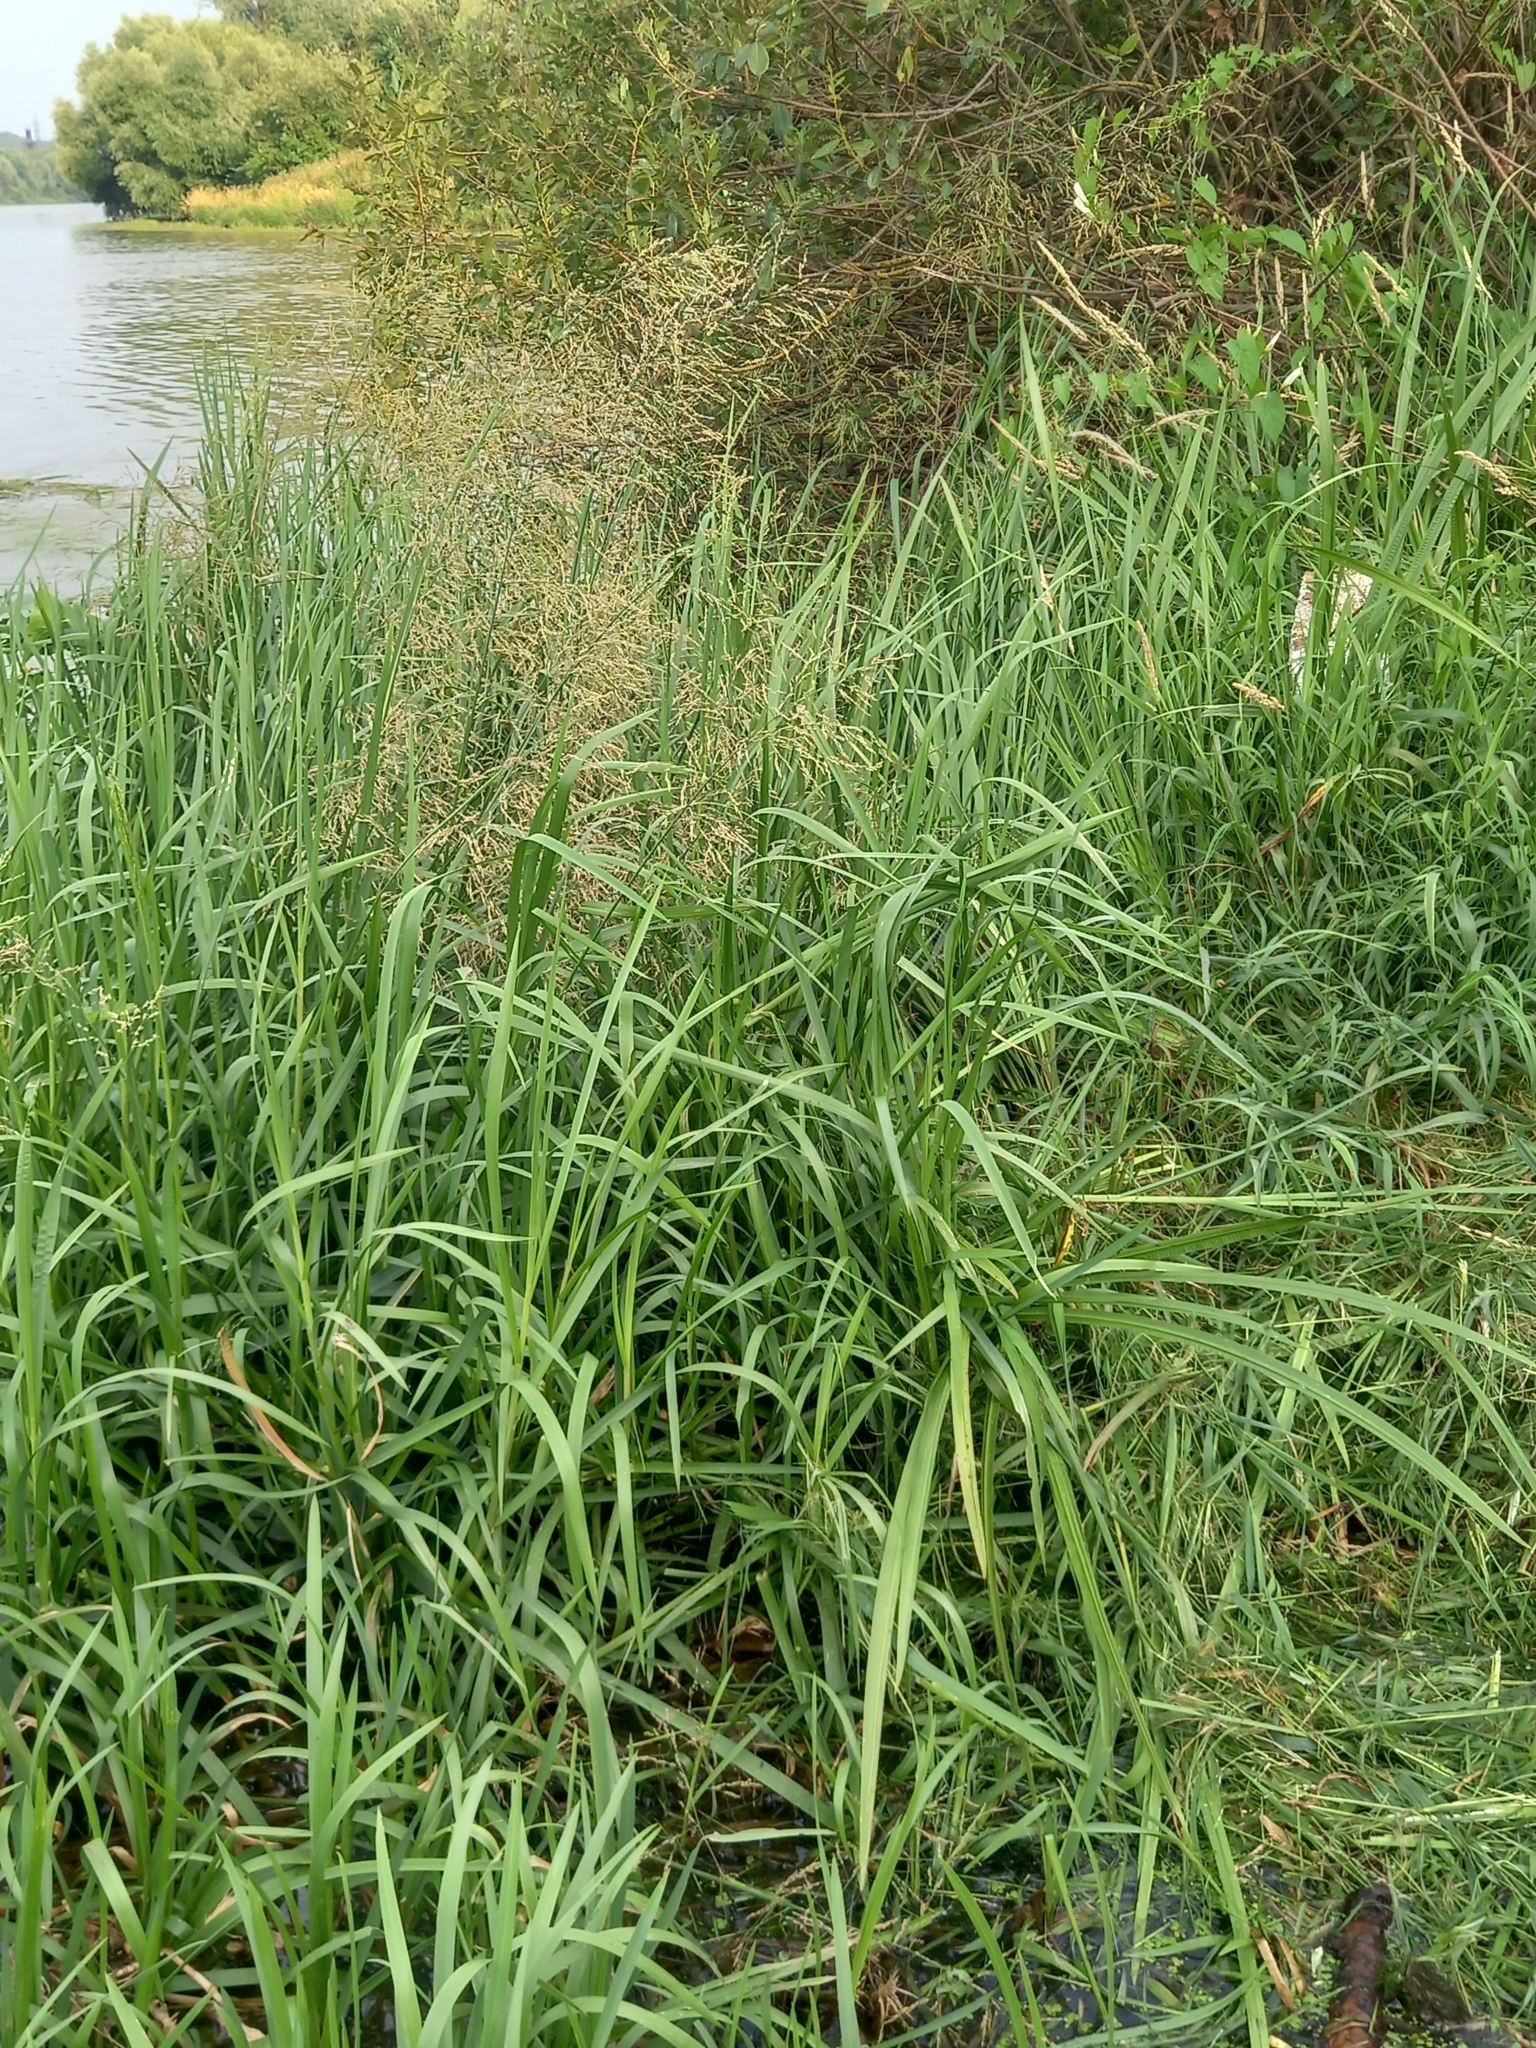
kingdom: Plantae
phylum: Tracheophyta
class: Liliopsida
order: Poales
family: Poaceae
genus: Glyceria
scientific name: Glyceria maxima
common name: Reed mannagrass
